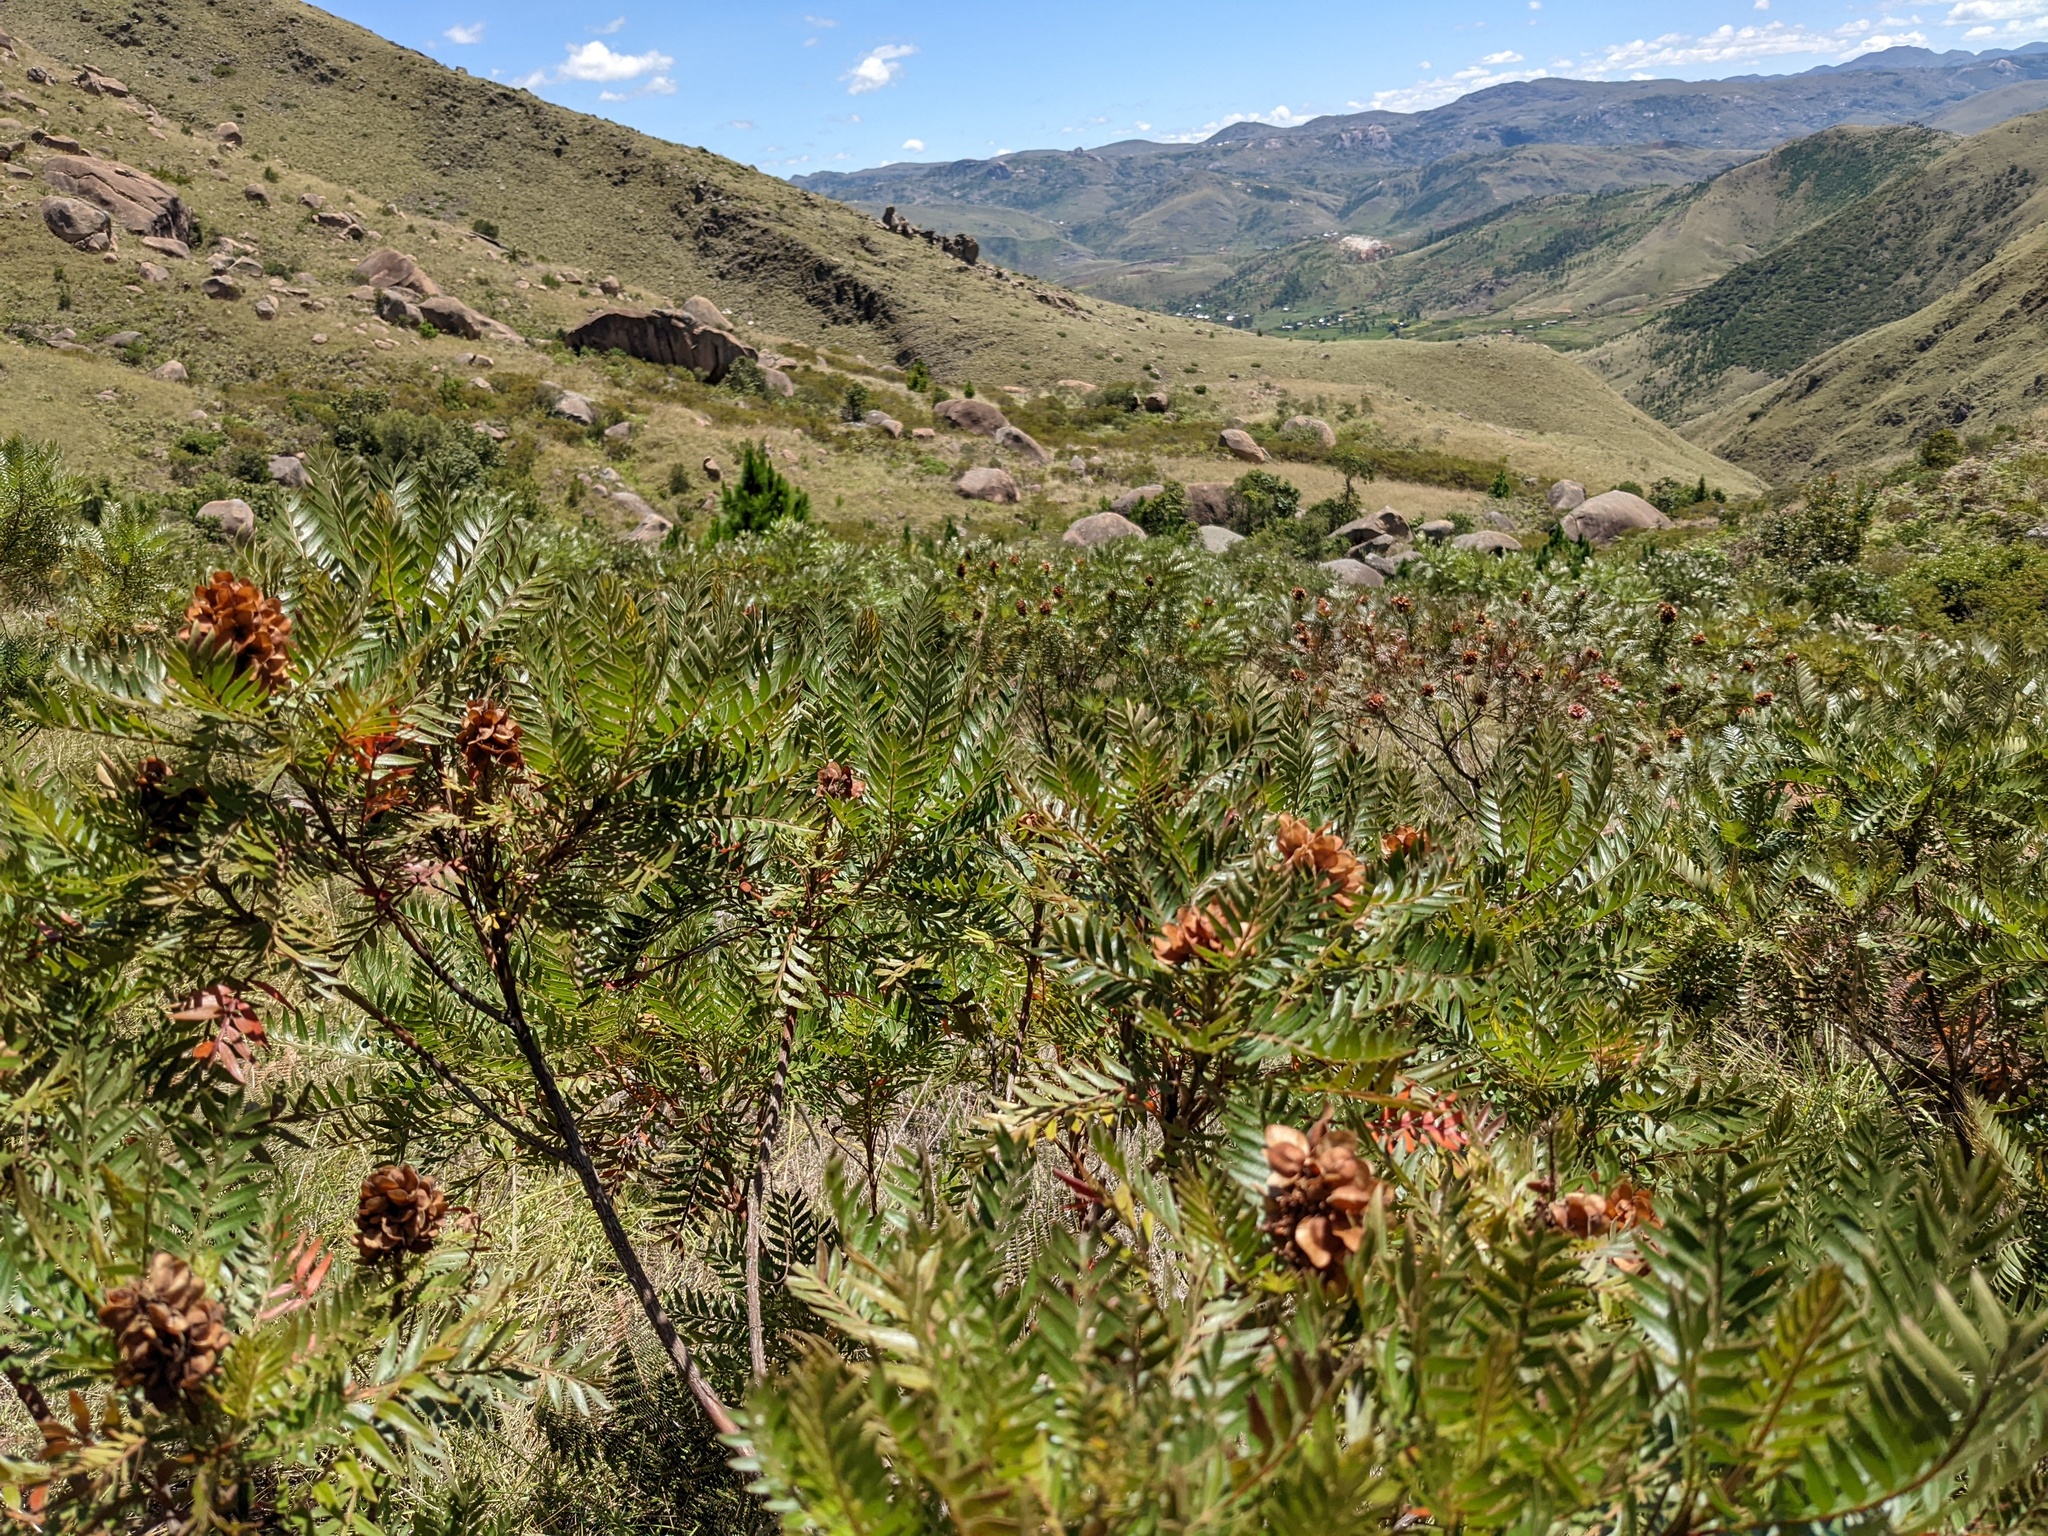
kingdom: Plantae
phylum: Tracheophyta
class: Magnoliopsida
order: Sapindales
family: Sapindaceae
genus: Dodonaea
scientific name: Dodonaea madagascariensis
